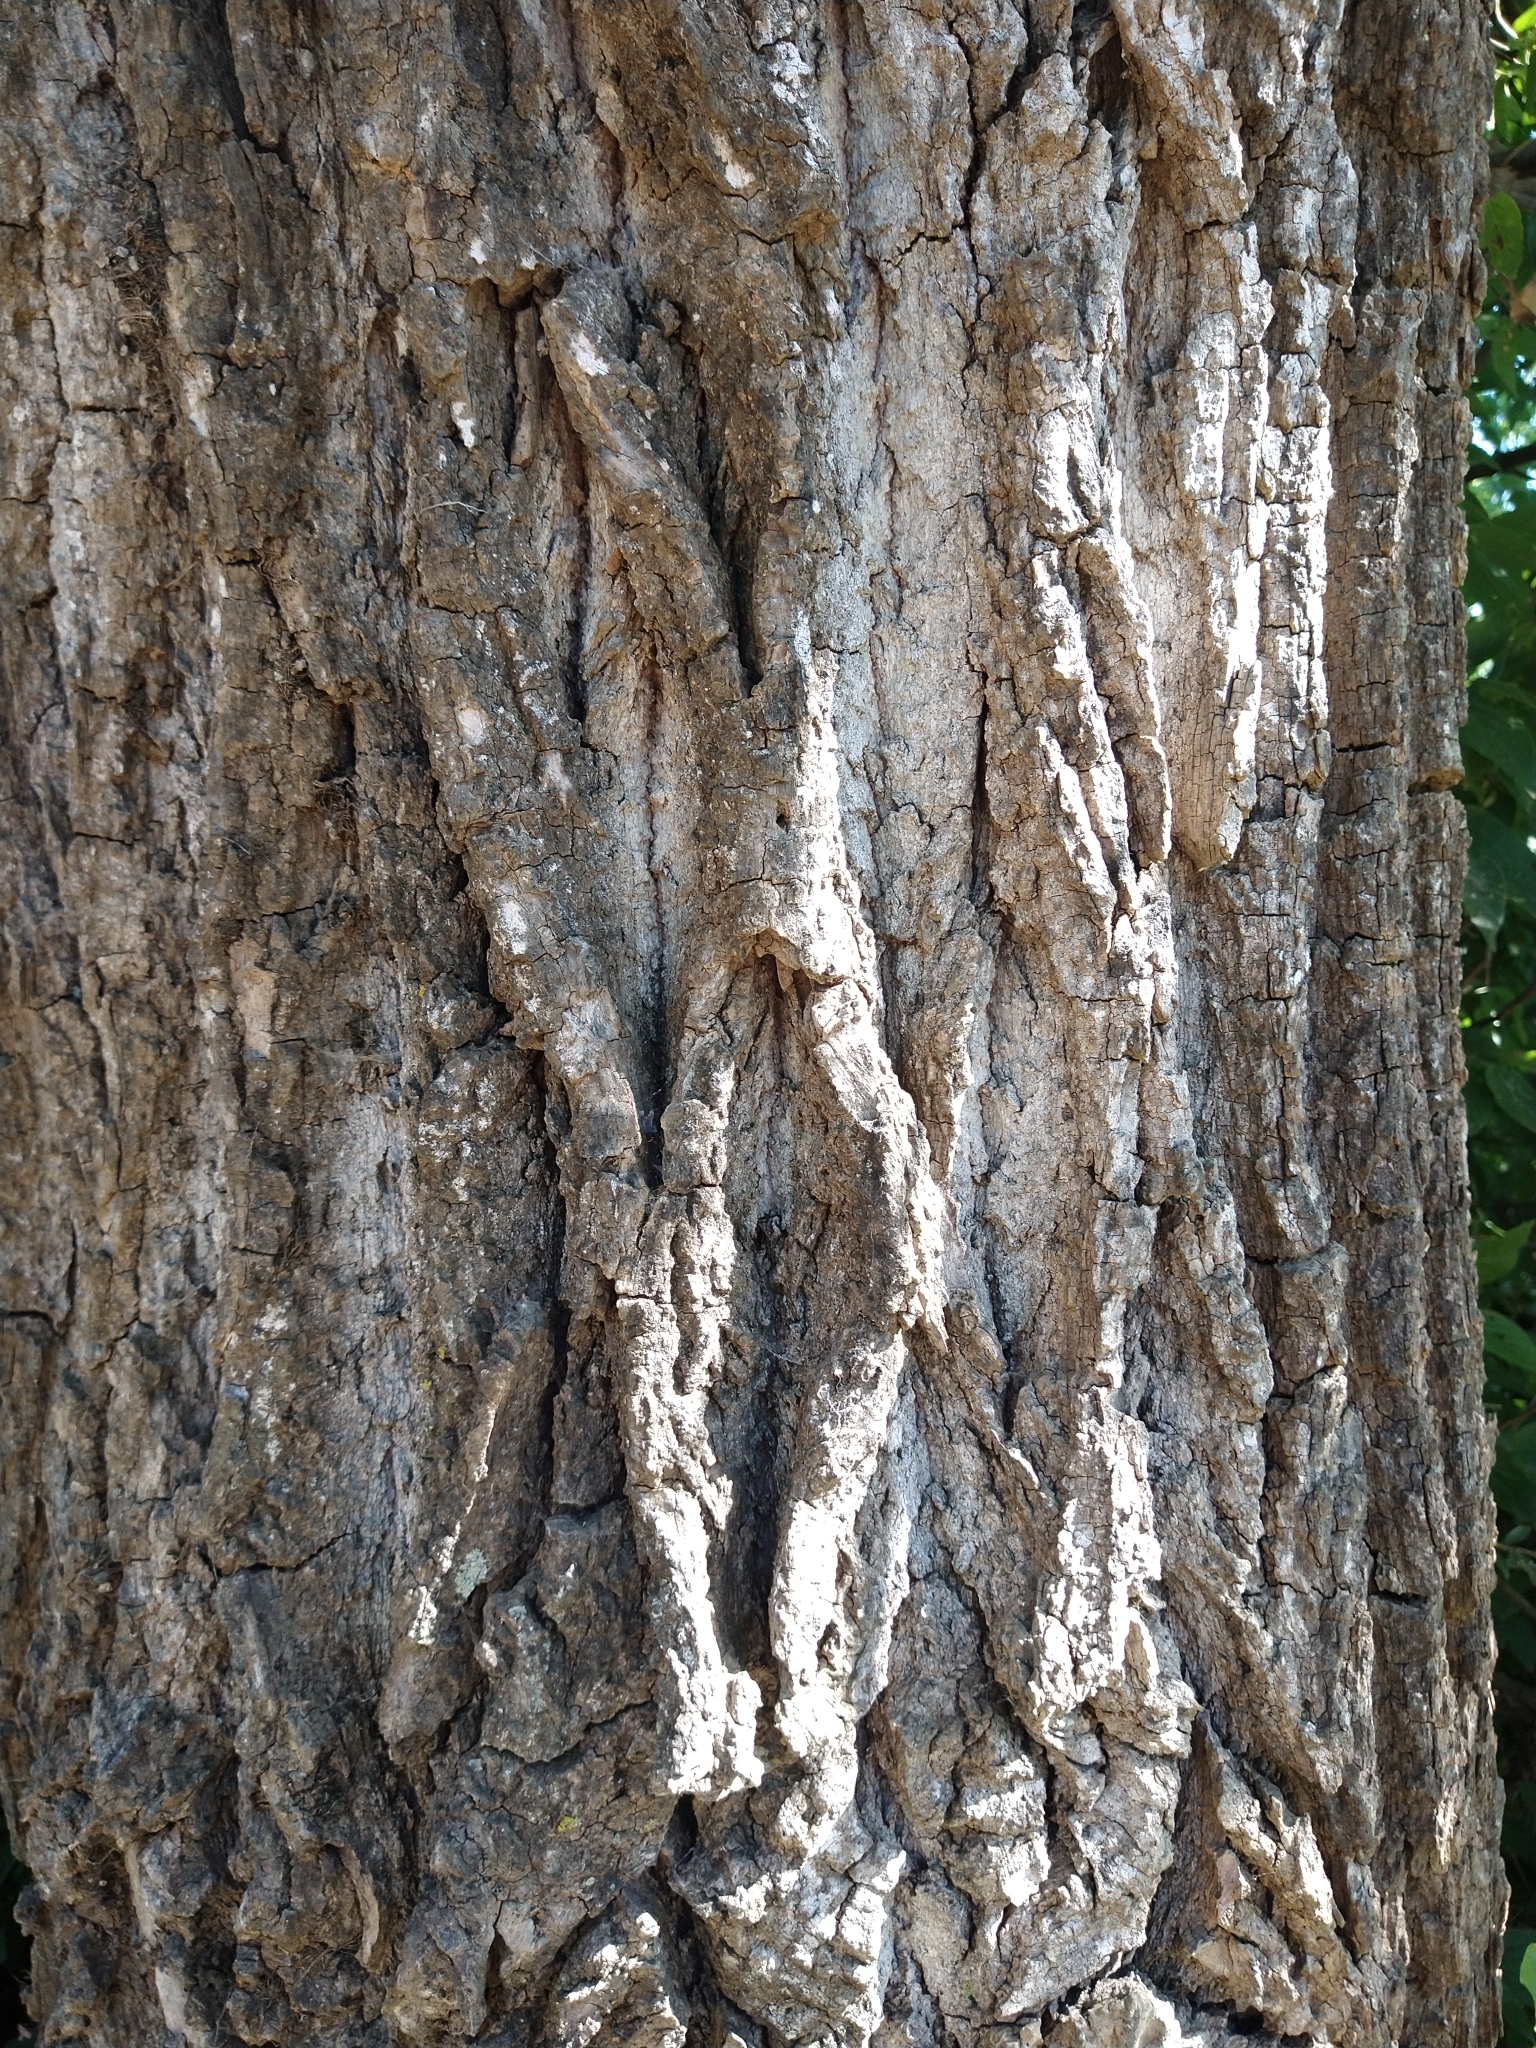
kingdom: Plantae
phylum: Tracheophyta
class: Magnoliopsida
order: Malpighiales
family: Salicaceae
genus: Populus
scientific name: Populus deltoides
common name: Eastern cottonwood
